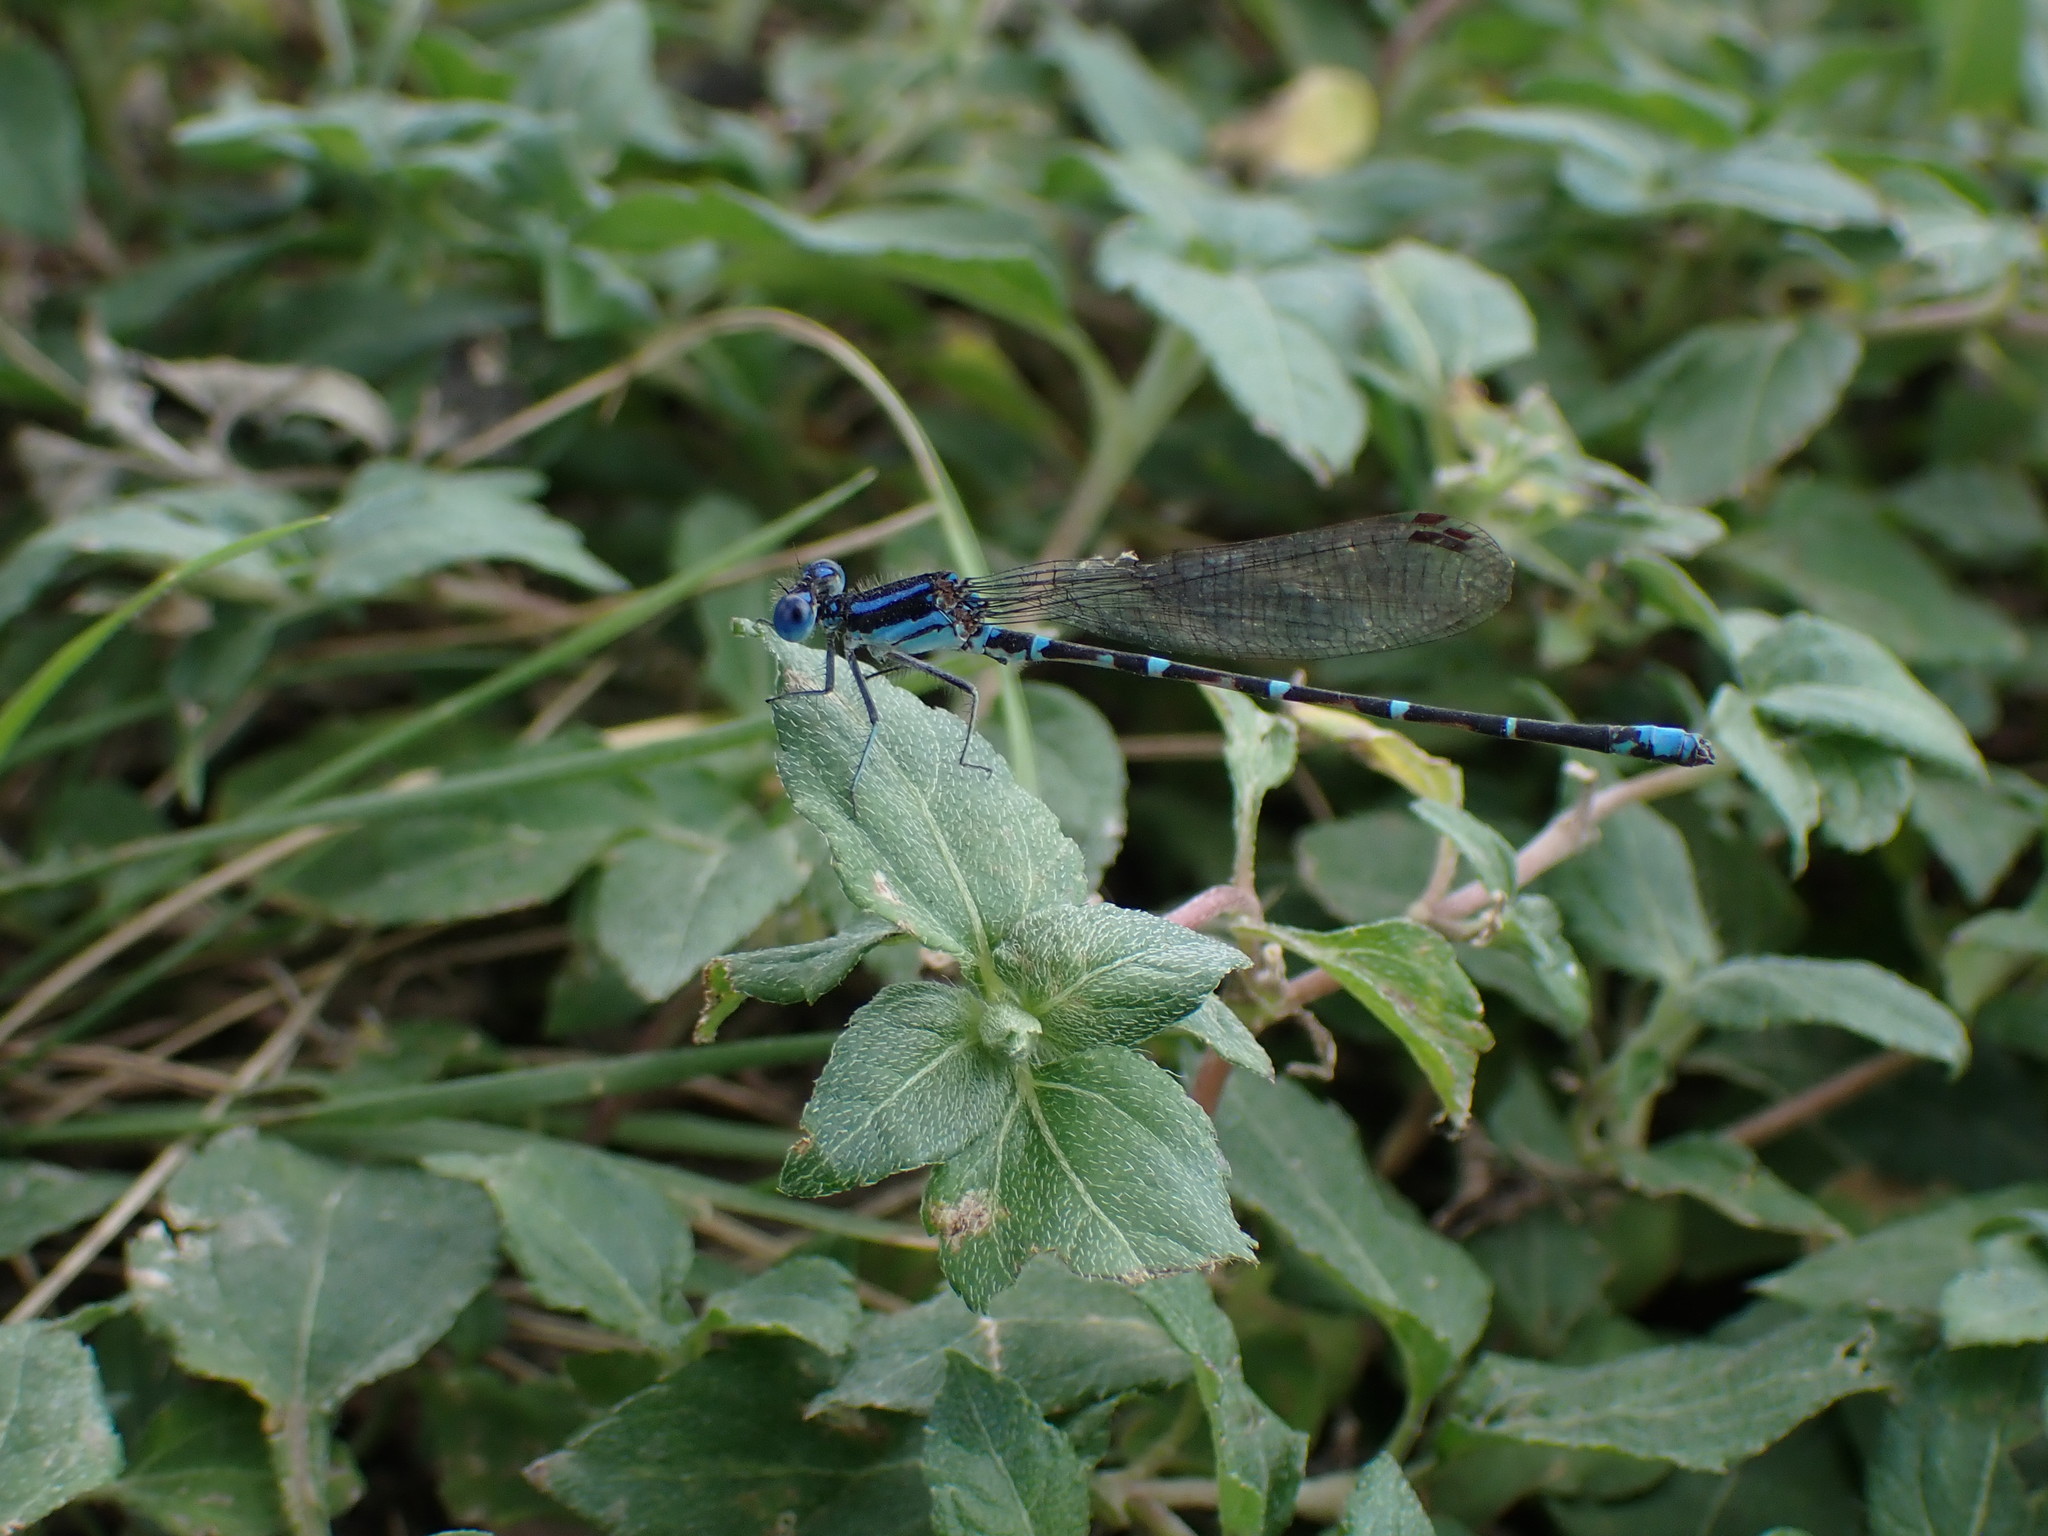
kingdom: Animalia
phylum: Arthropoda
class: Insecta
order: Odonata
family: Coenagrionidae
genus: Argia
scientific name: Argia sedula
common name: Blue-ringed dancer
